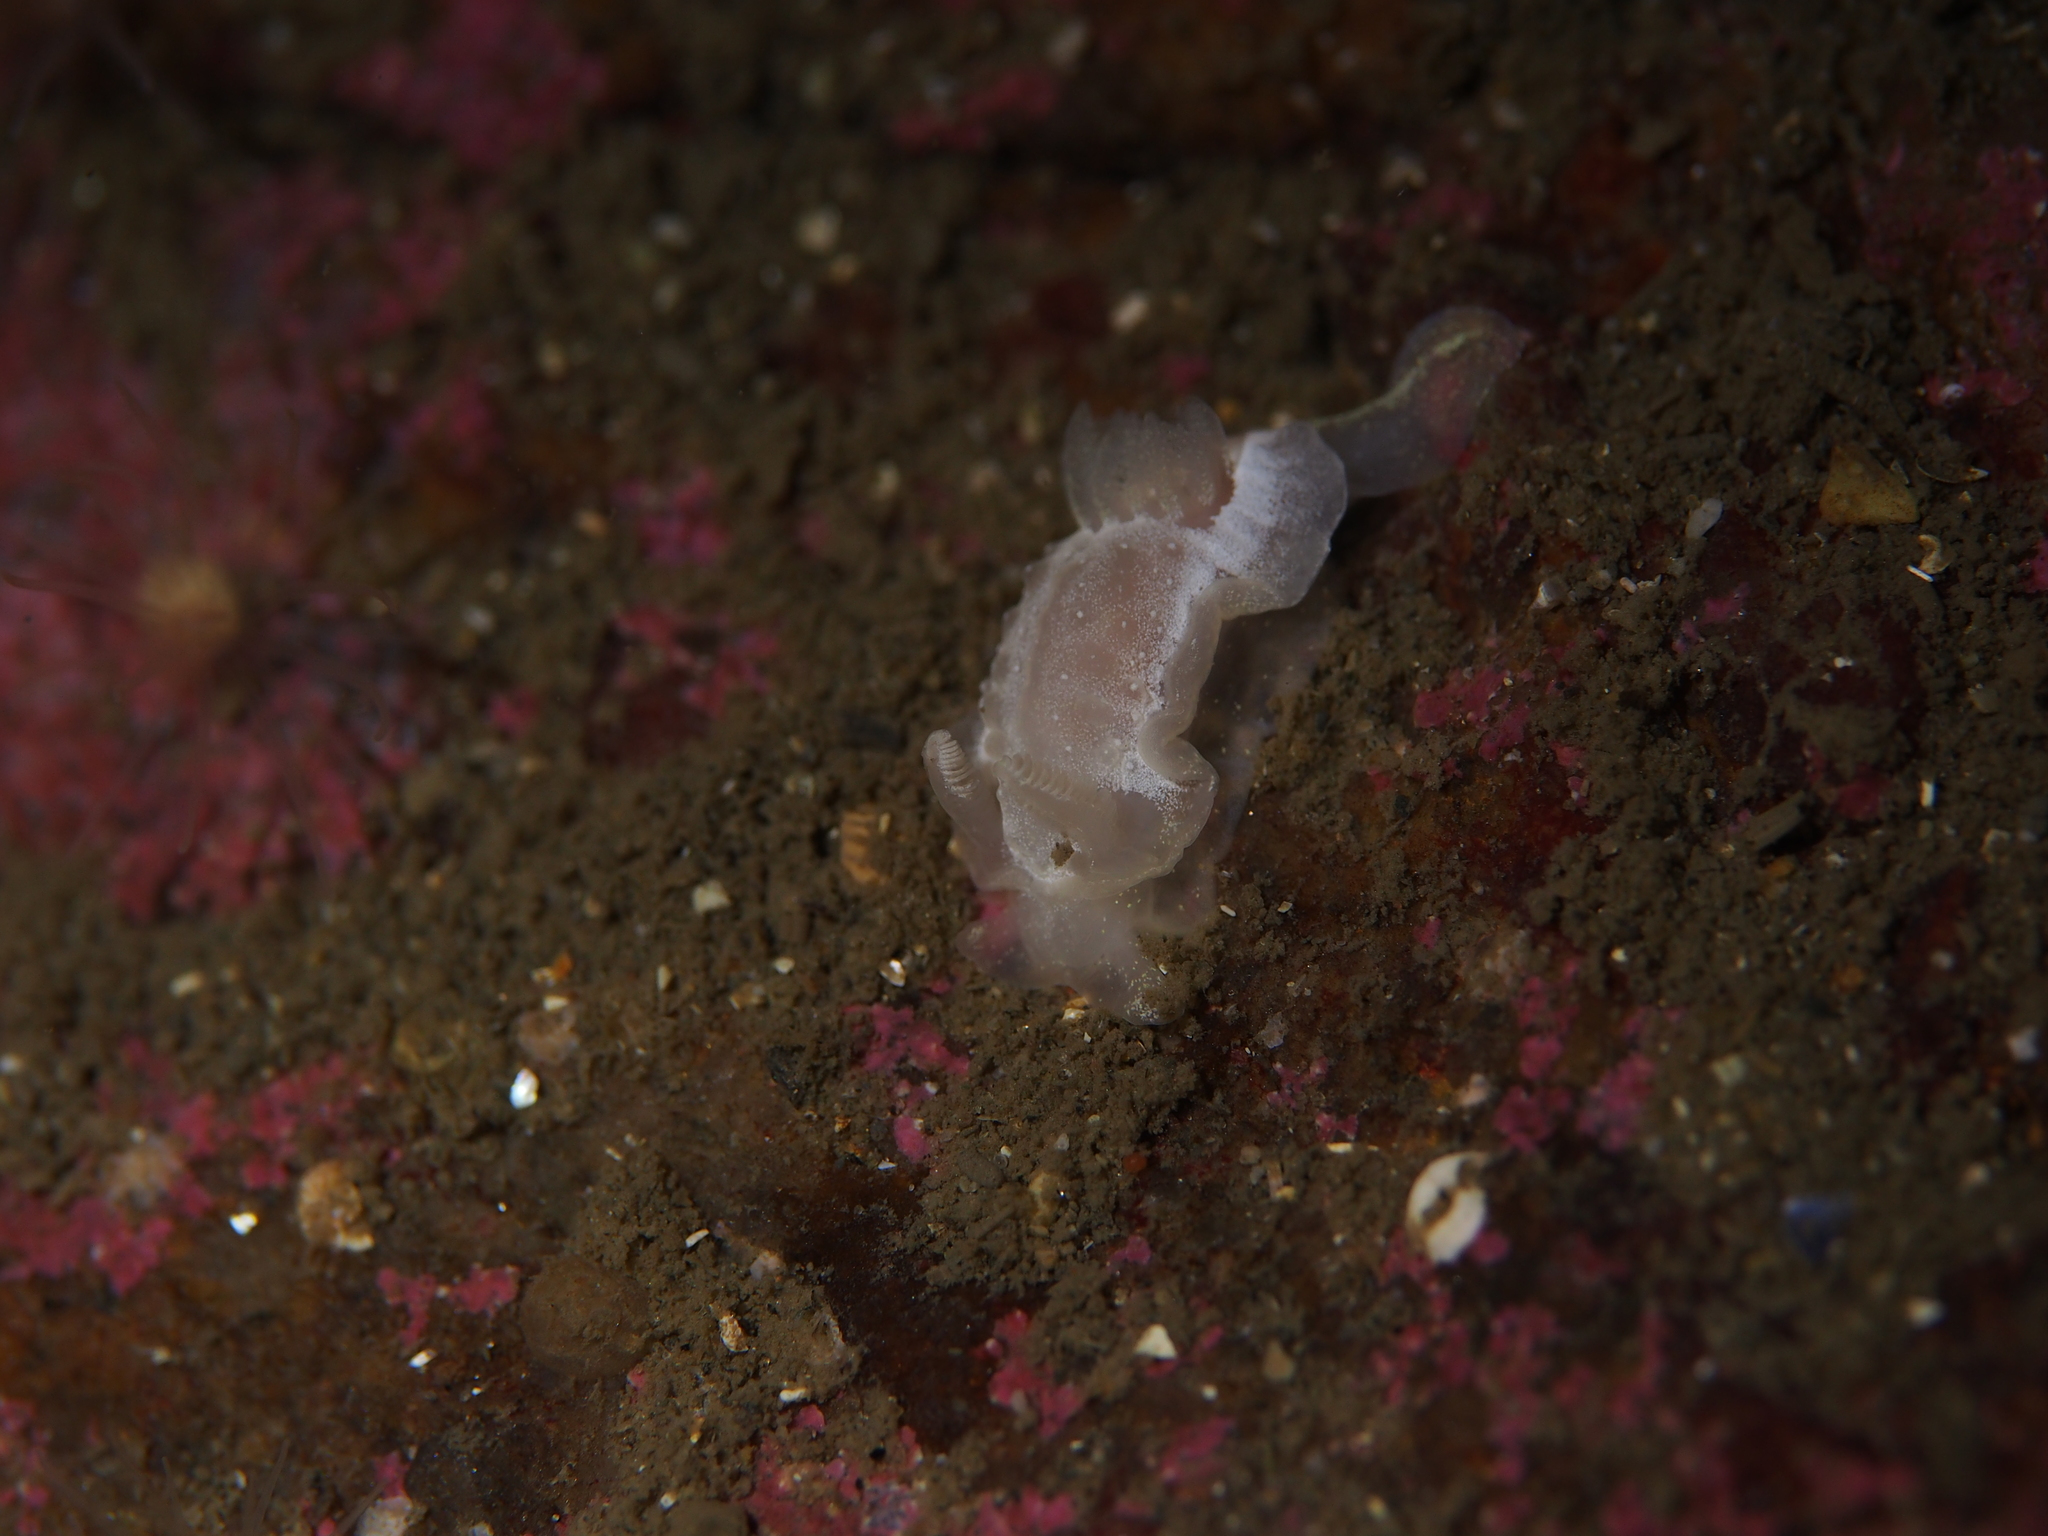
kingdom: Animalia
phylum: Mollusca
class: Gastropoda
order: Nudibranchia
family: Goniodorididae
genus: Okenia
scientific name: Okenia
